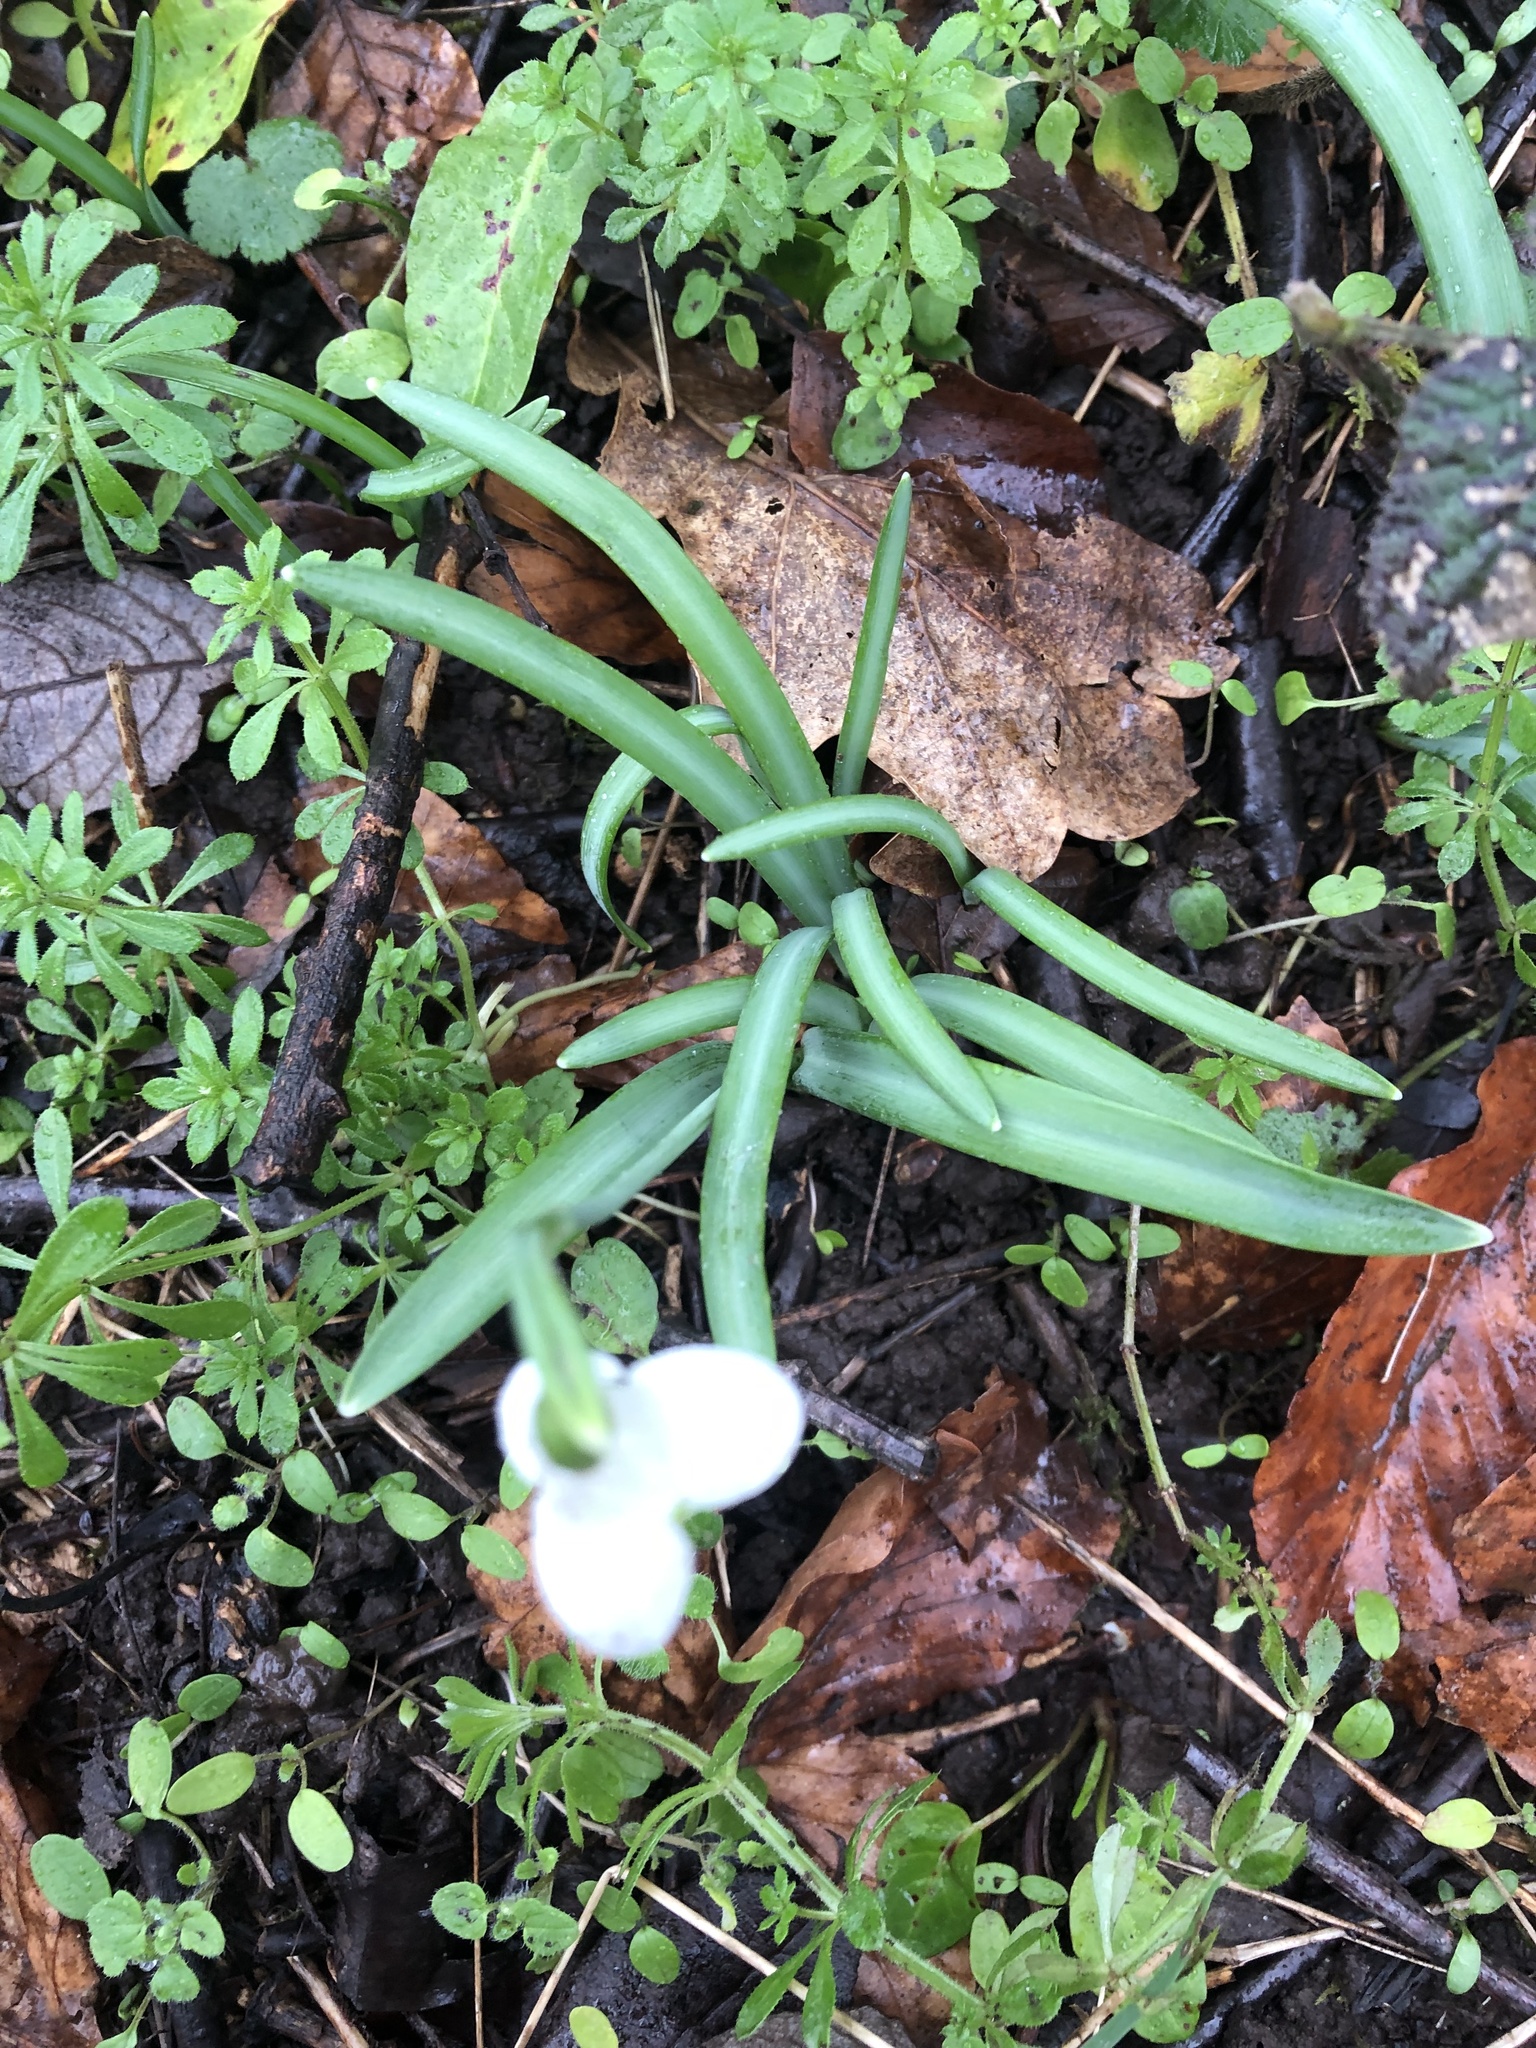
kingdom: Plantae
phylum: Tracheophyta
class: Liliopsida
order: Asparagales
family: Amaryllidaceae
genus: Galanthus
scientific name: Galanthus nivalis
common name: Snowdrop
